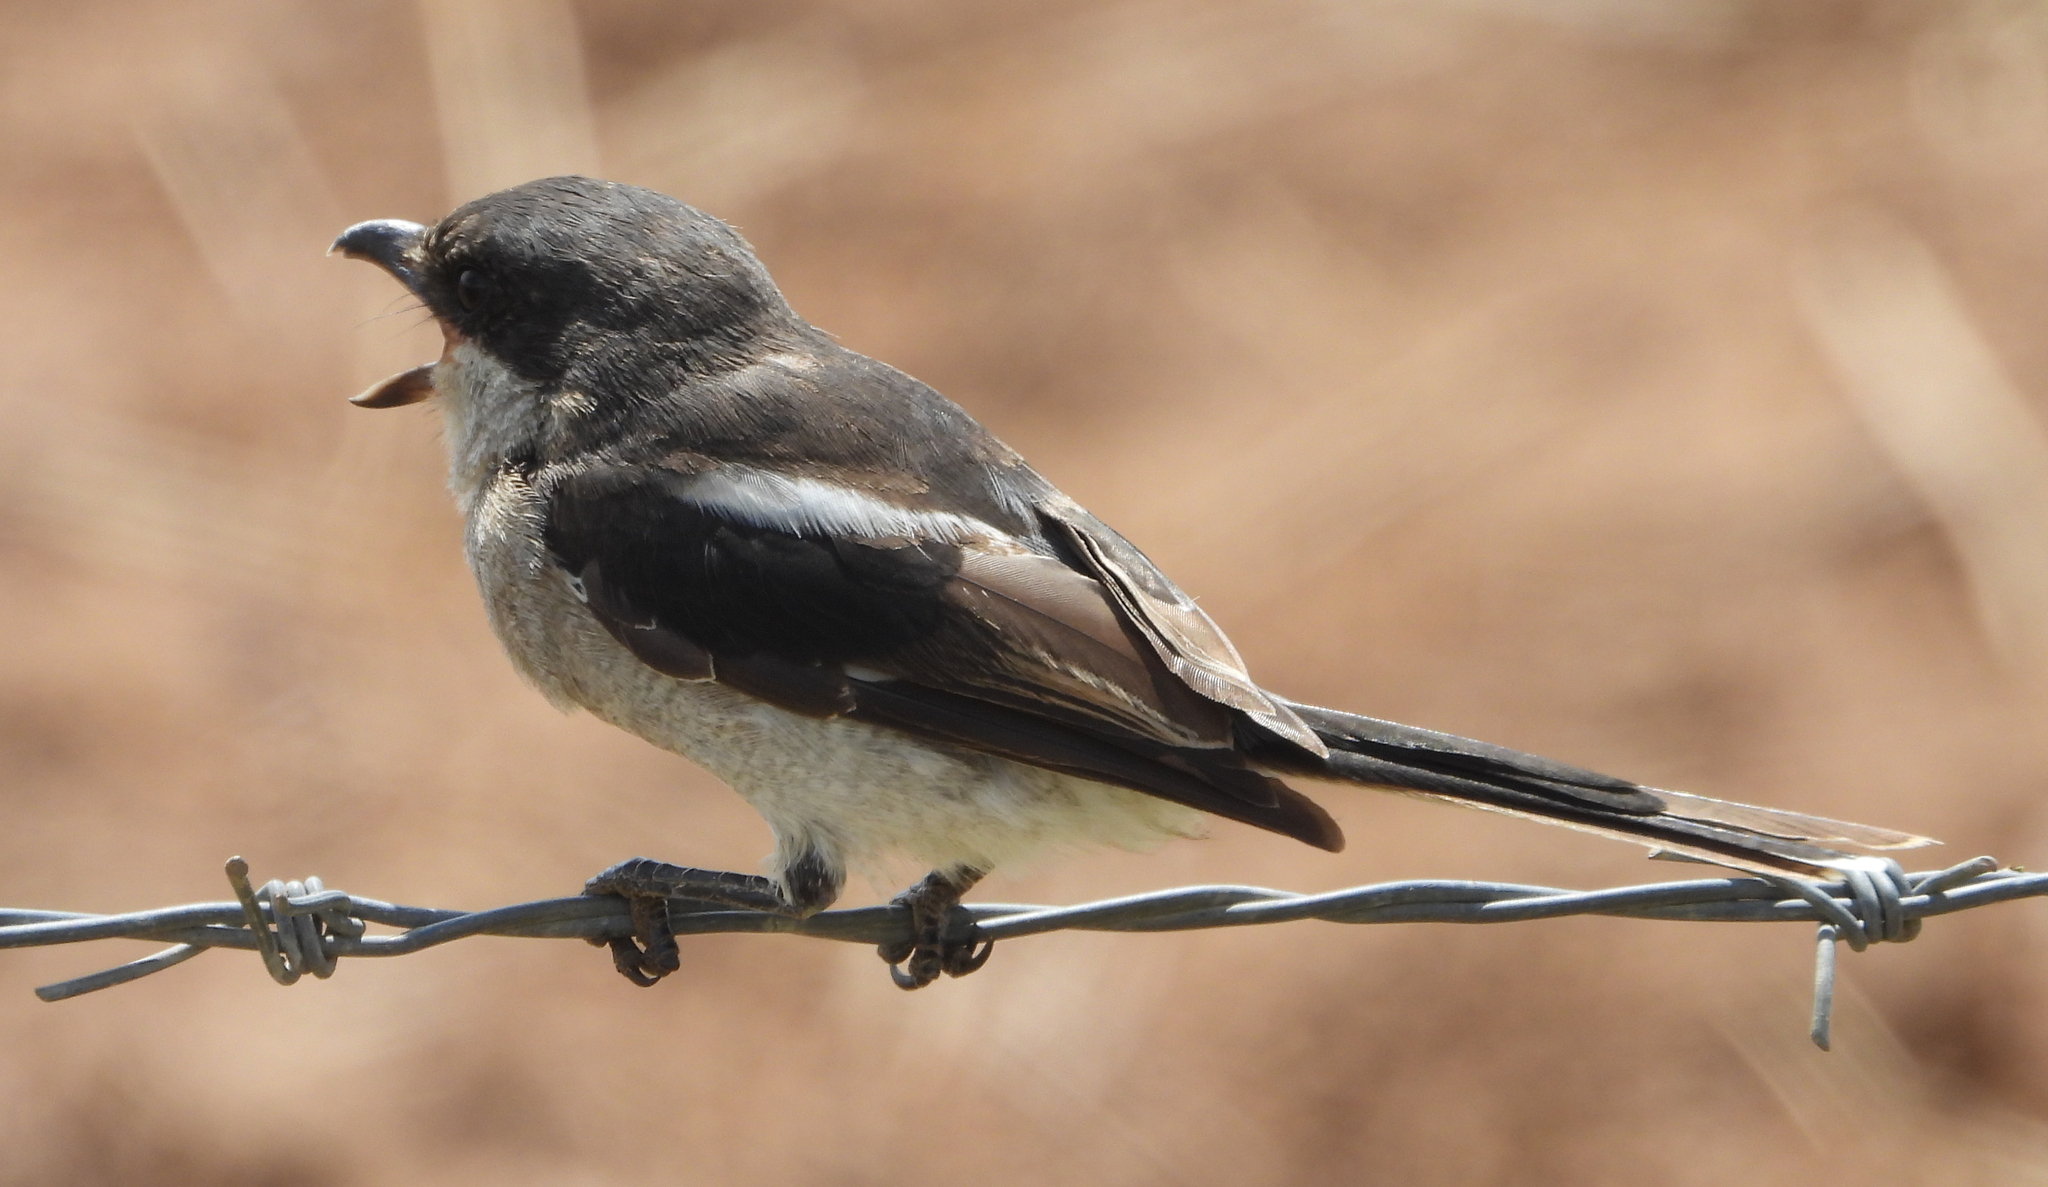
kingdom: Animalia
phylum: Chordata
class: Aves
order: Passeriformes
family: Laniidae
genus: Lanius
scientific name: Lanius collaris
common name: Southern fiscal
